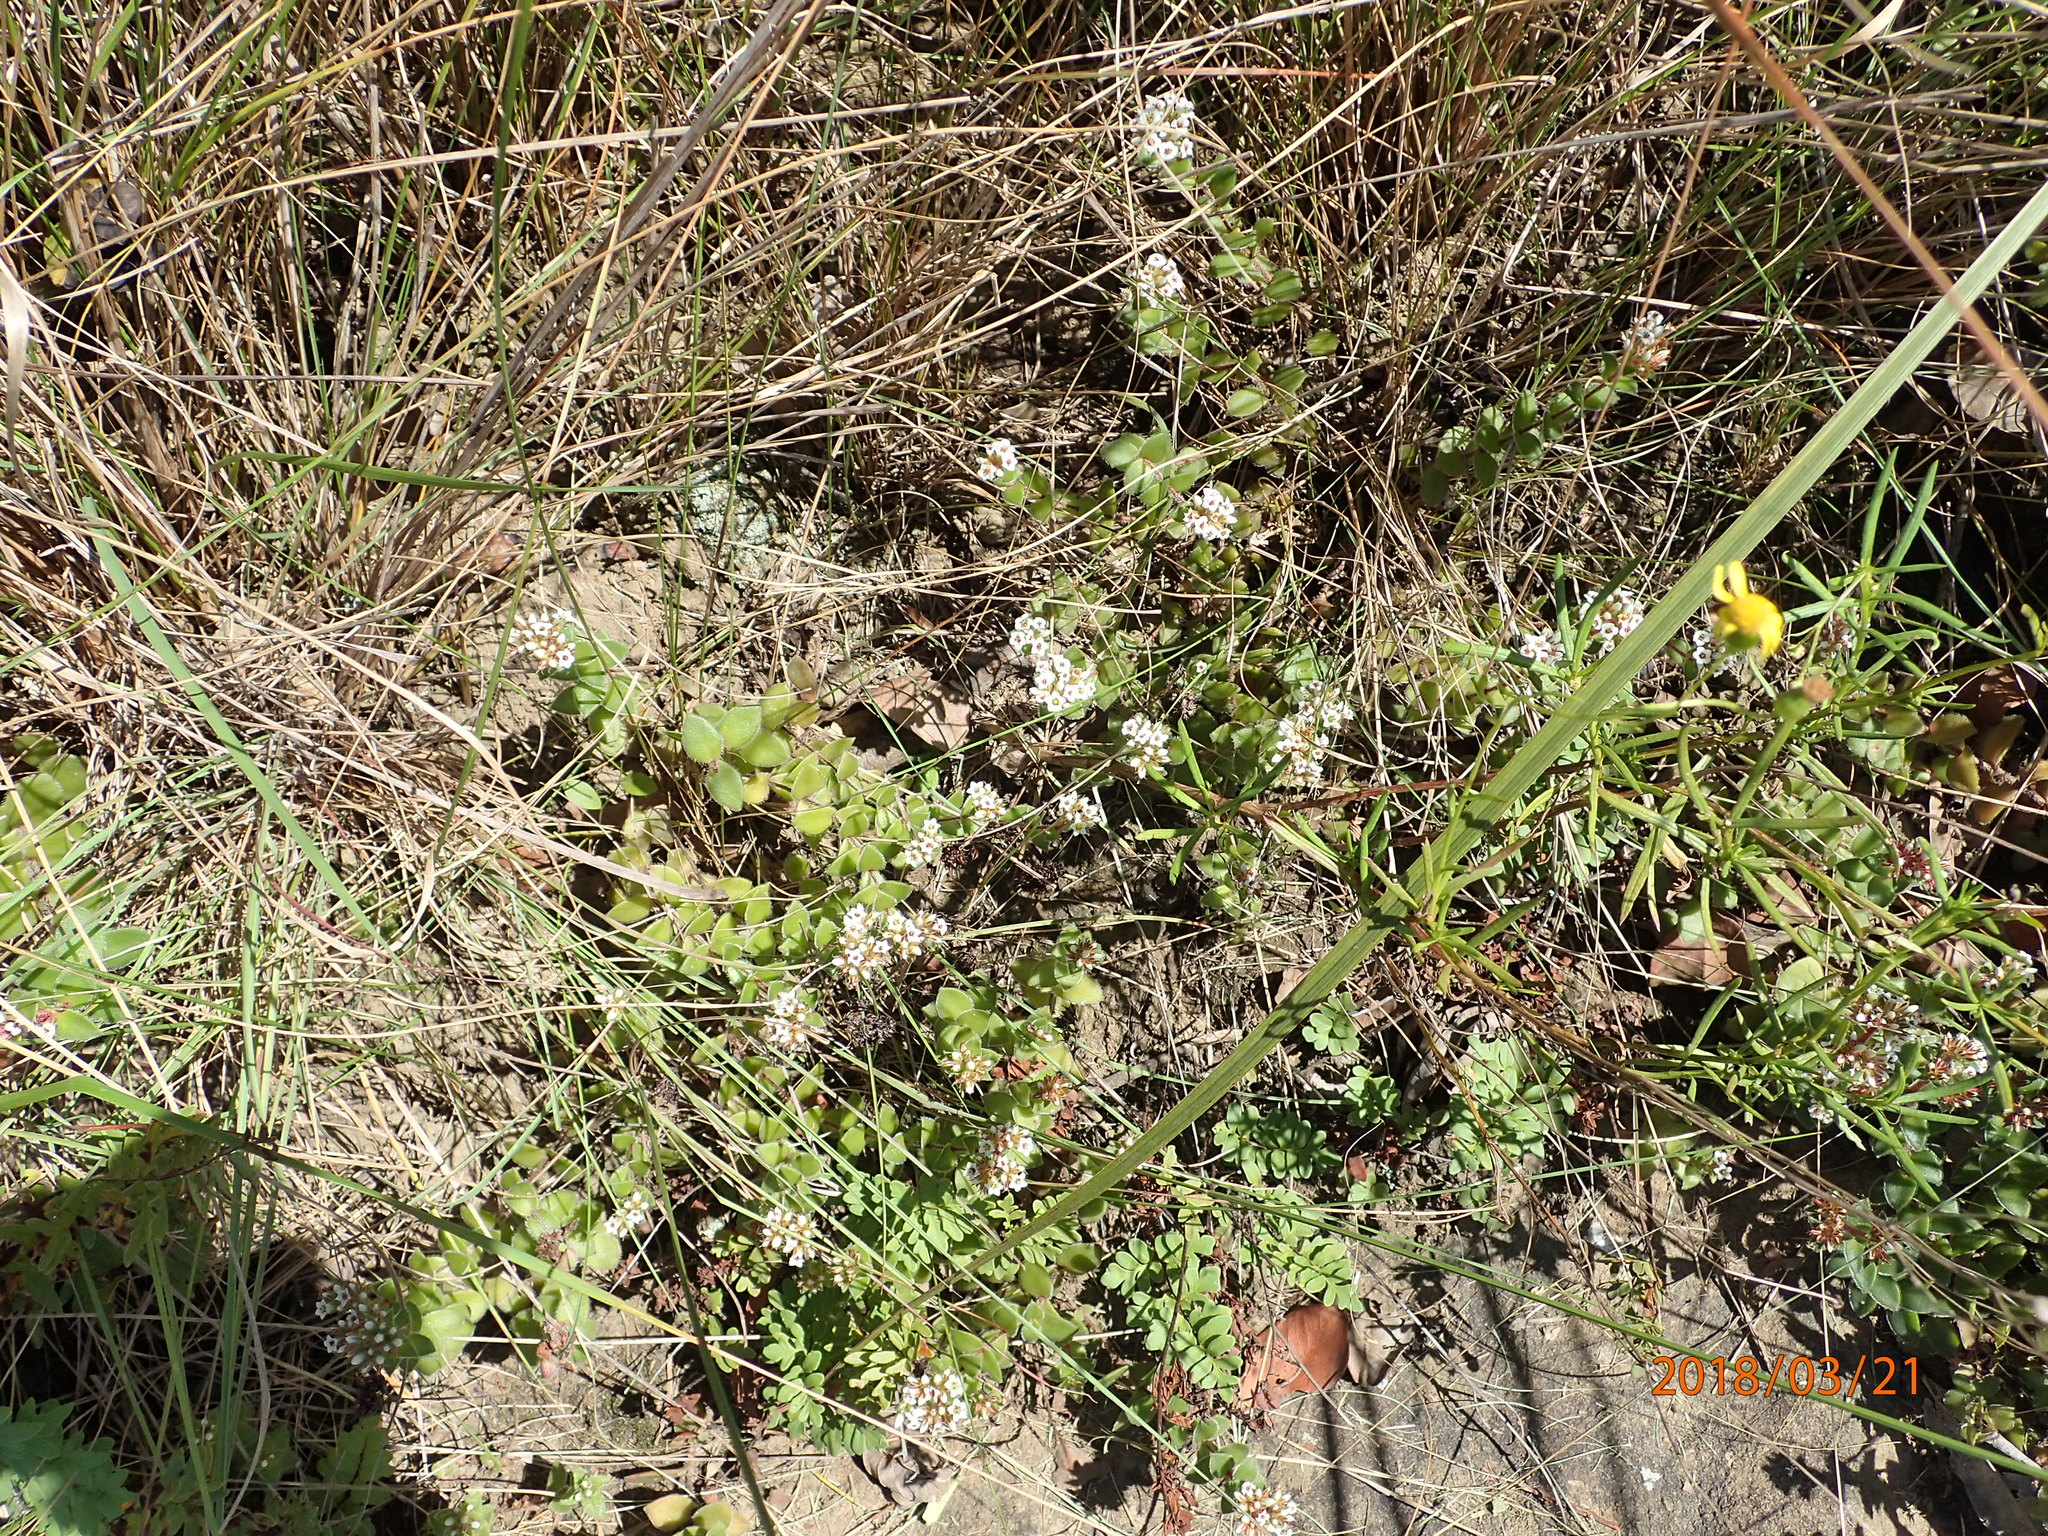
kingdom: Plantae
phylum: Tracheophyta
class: Magnoliopsida
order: Saxifragales
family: Crassulaceae
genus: Crassula
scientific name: Crassula obovata
